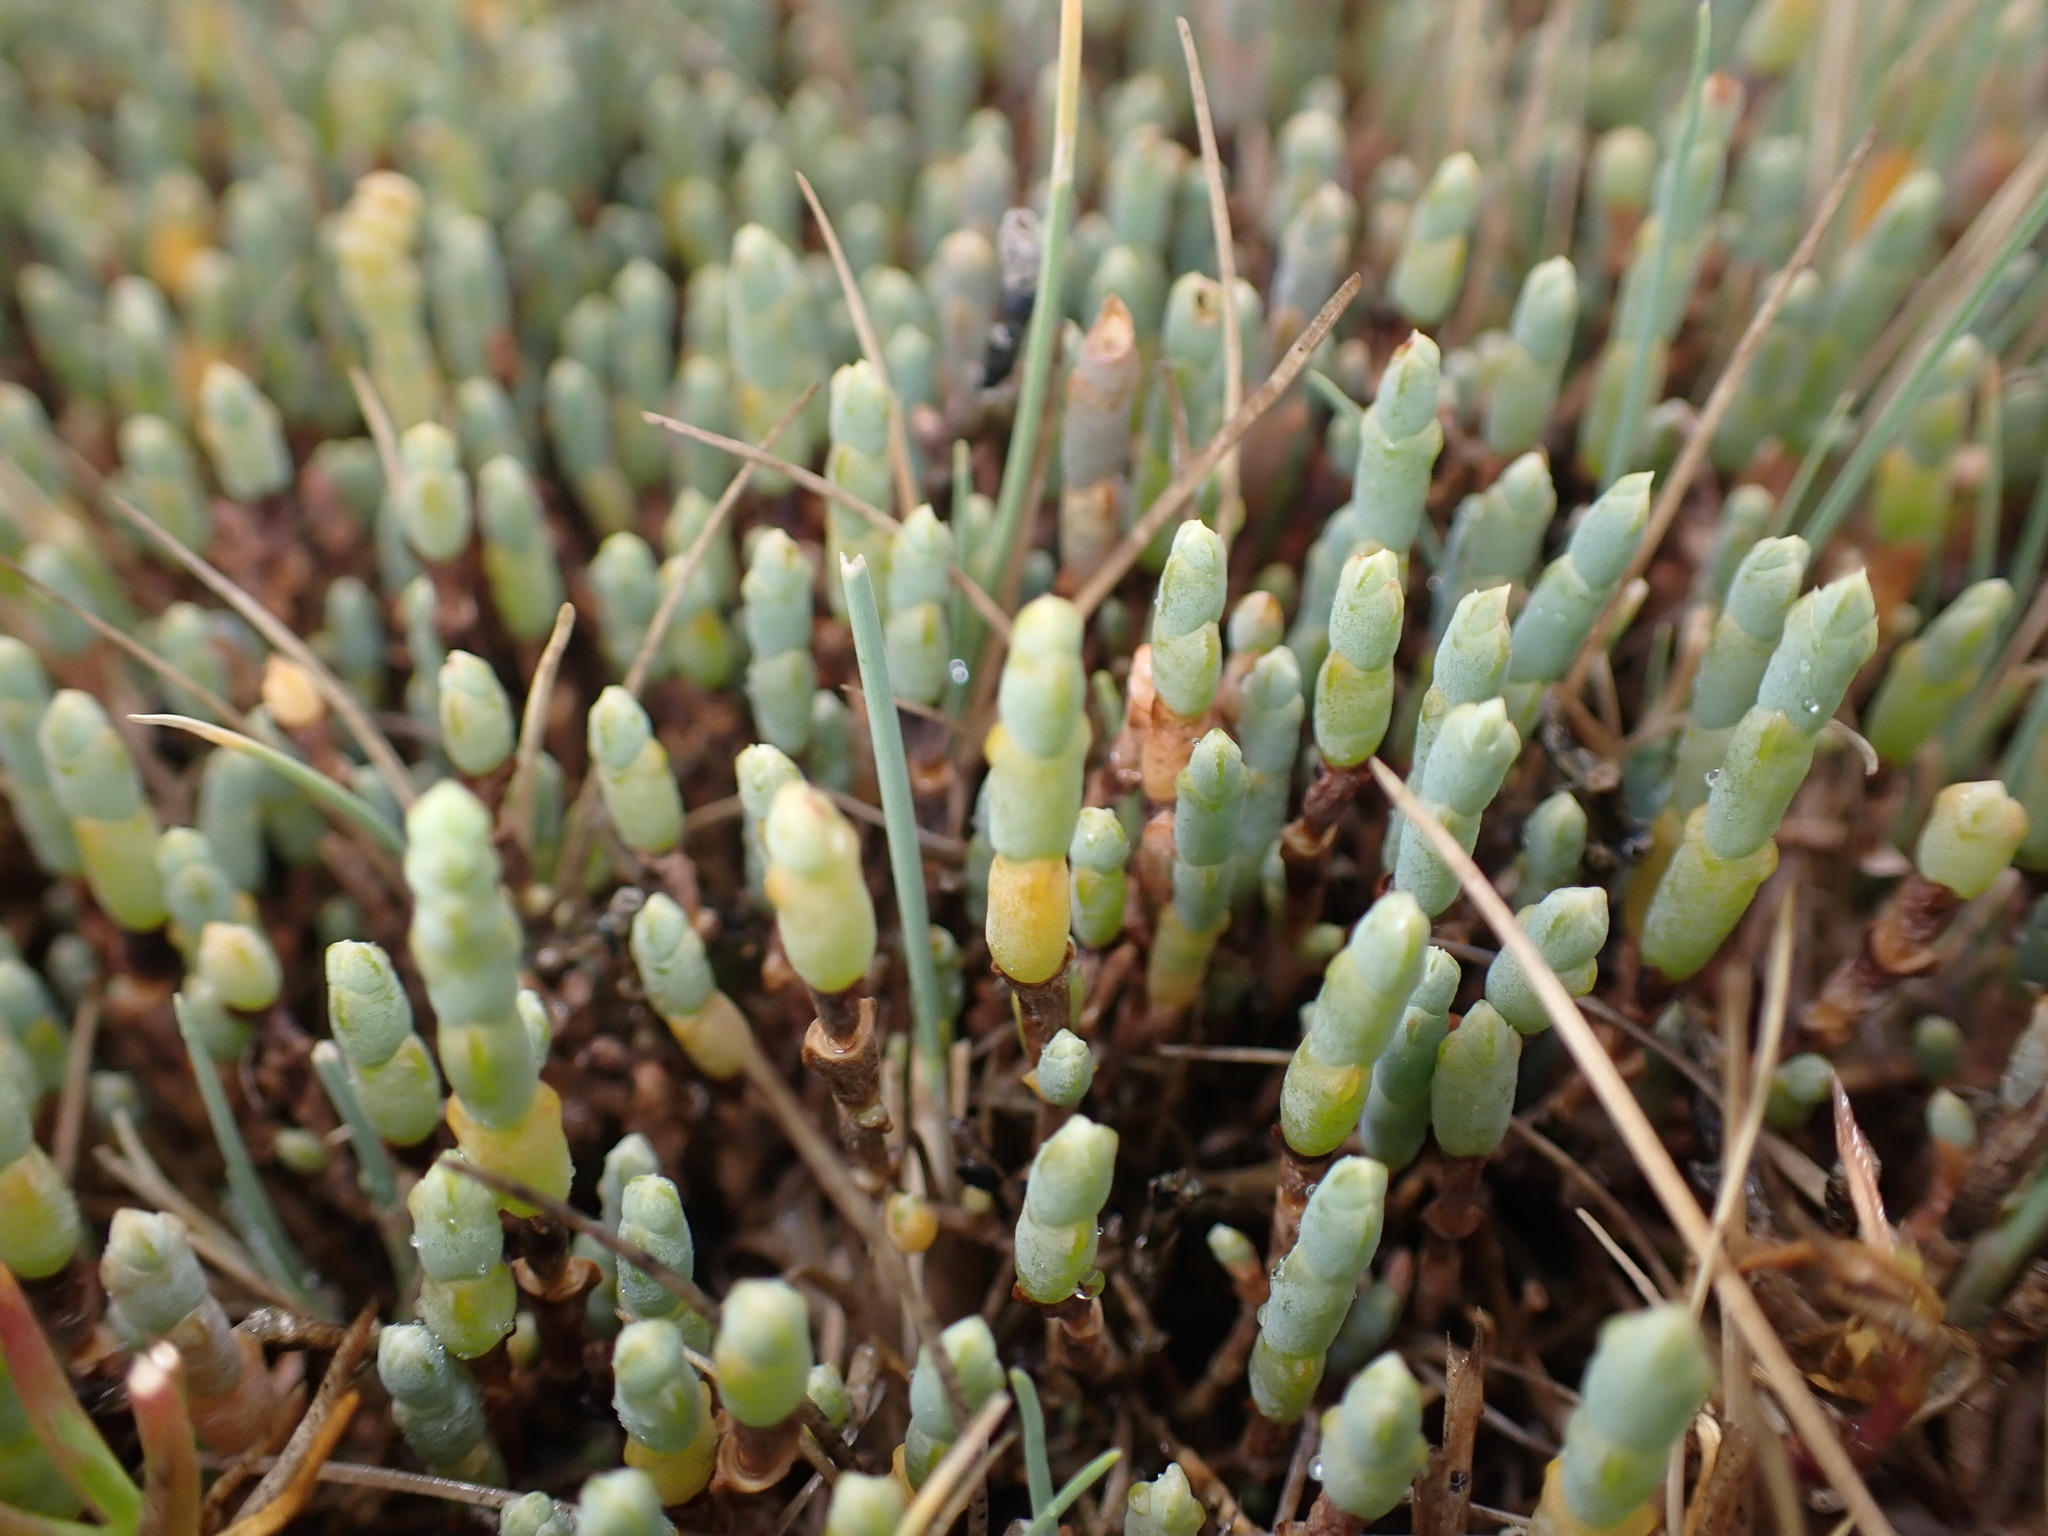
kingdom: Plantae
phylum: Tracheophyta
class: Magnoliopsida
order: Caryophyllales
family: Amaranthaceae
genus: Salicornia
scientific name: Salicornia quinqueflora
